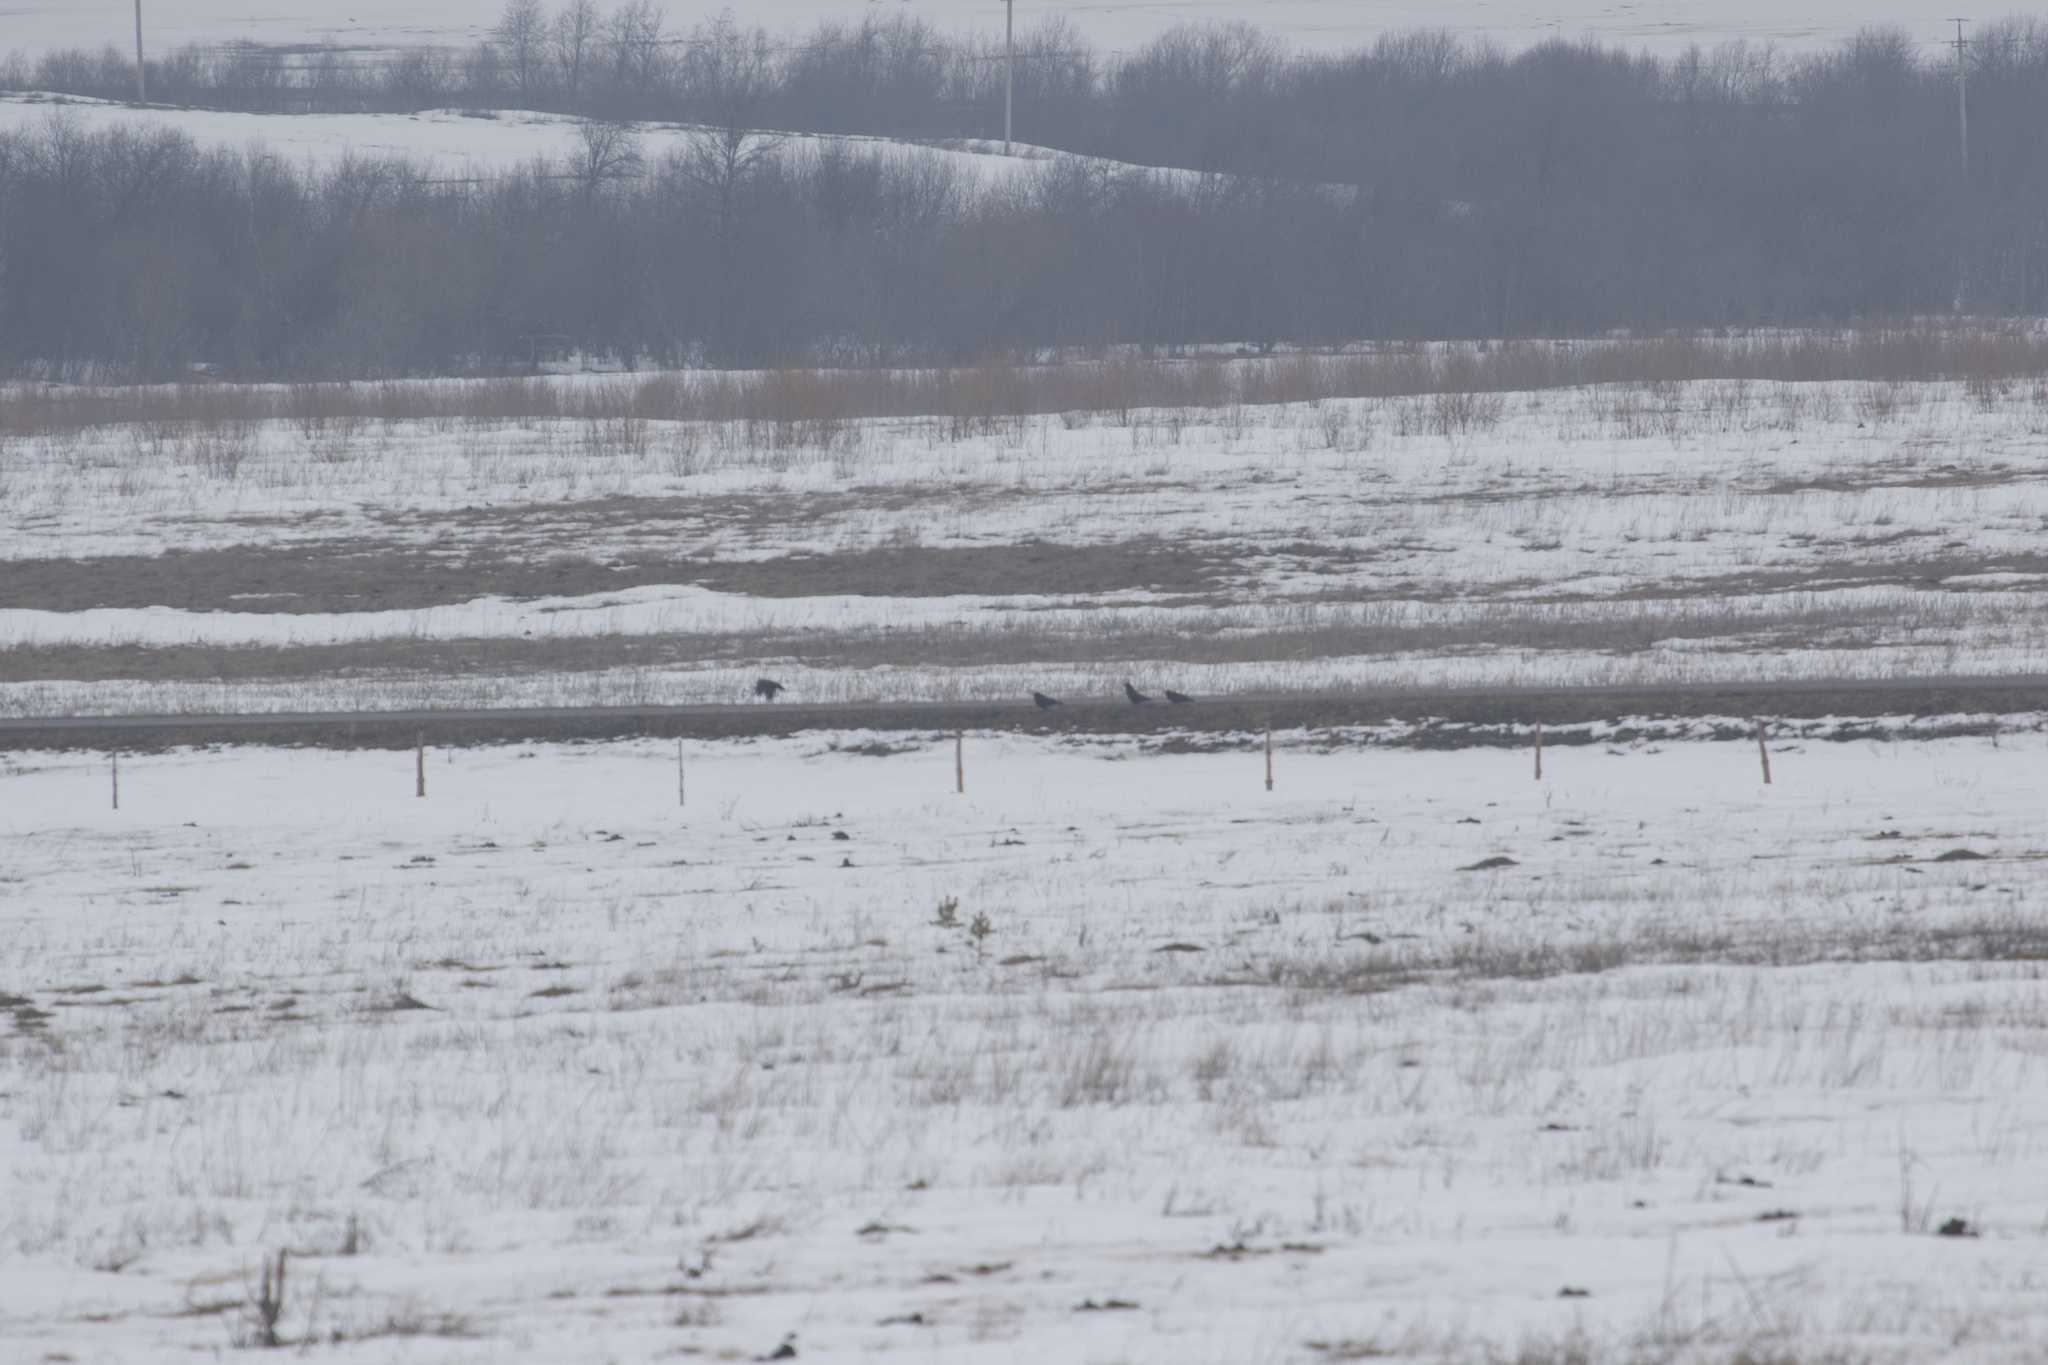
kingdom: Animalia
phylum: Chordata
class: Aves
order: Passeriformes
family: Corvidae
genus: Corvus
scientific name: Corvus corax
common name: Common raven
